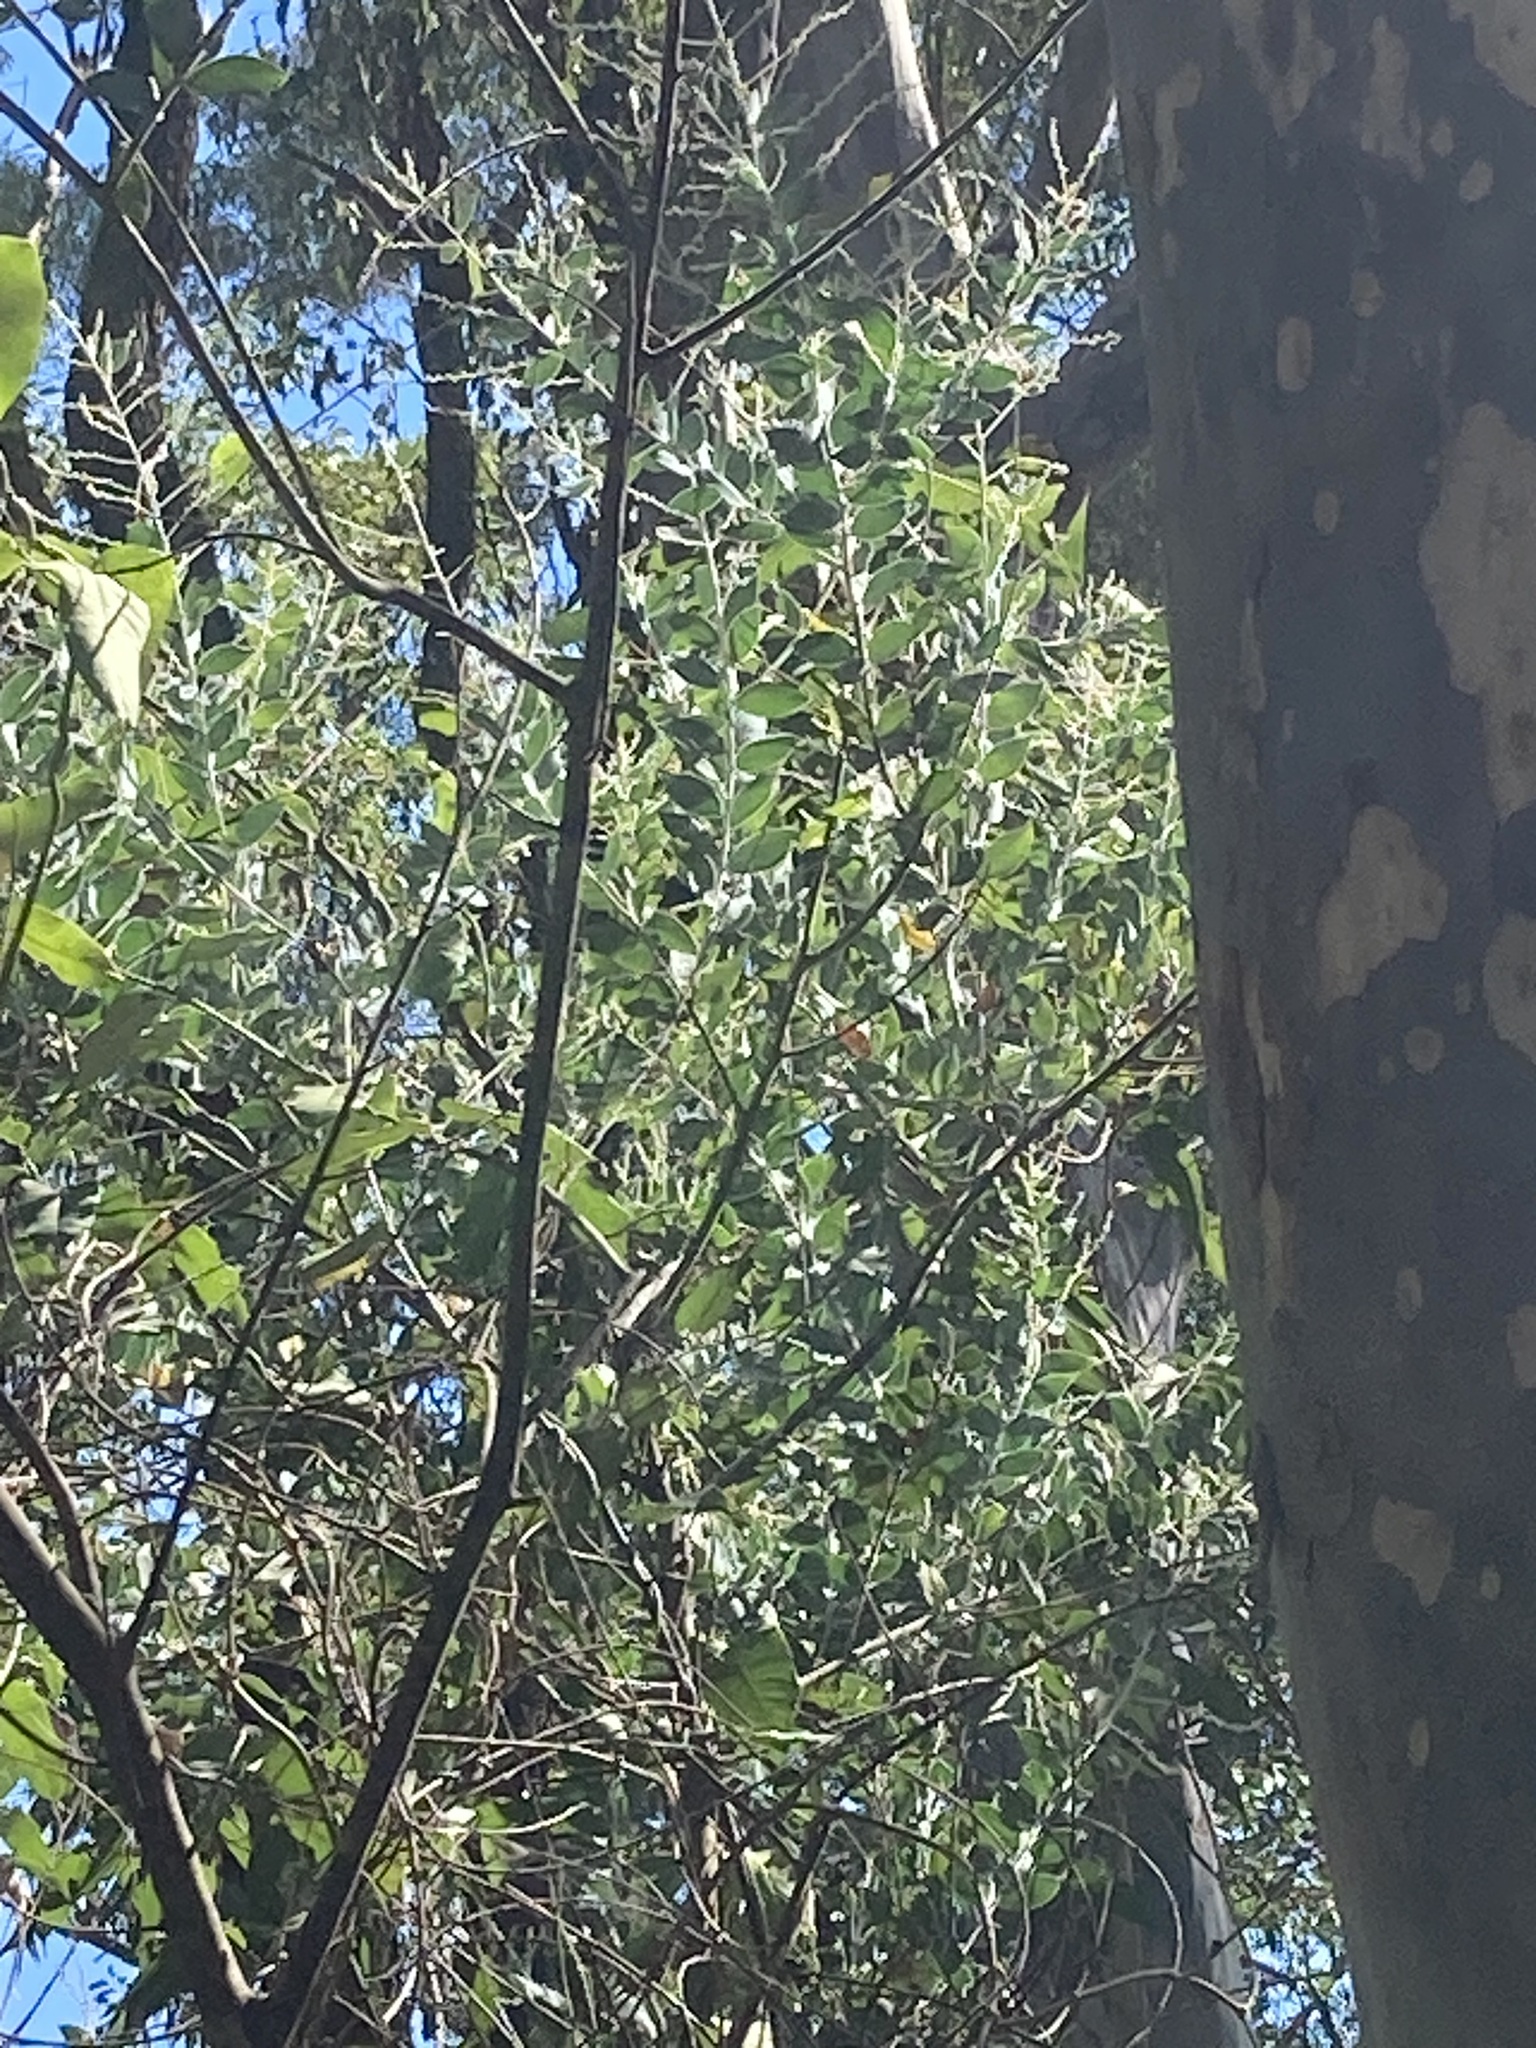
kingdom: Plantae
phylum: Tracheophyta
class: Magnoliopsida
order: Fabales
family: Fabaceae
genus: Acacia
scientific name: Acacia podalyriifolia
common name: Pearl wattle
